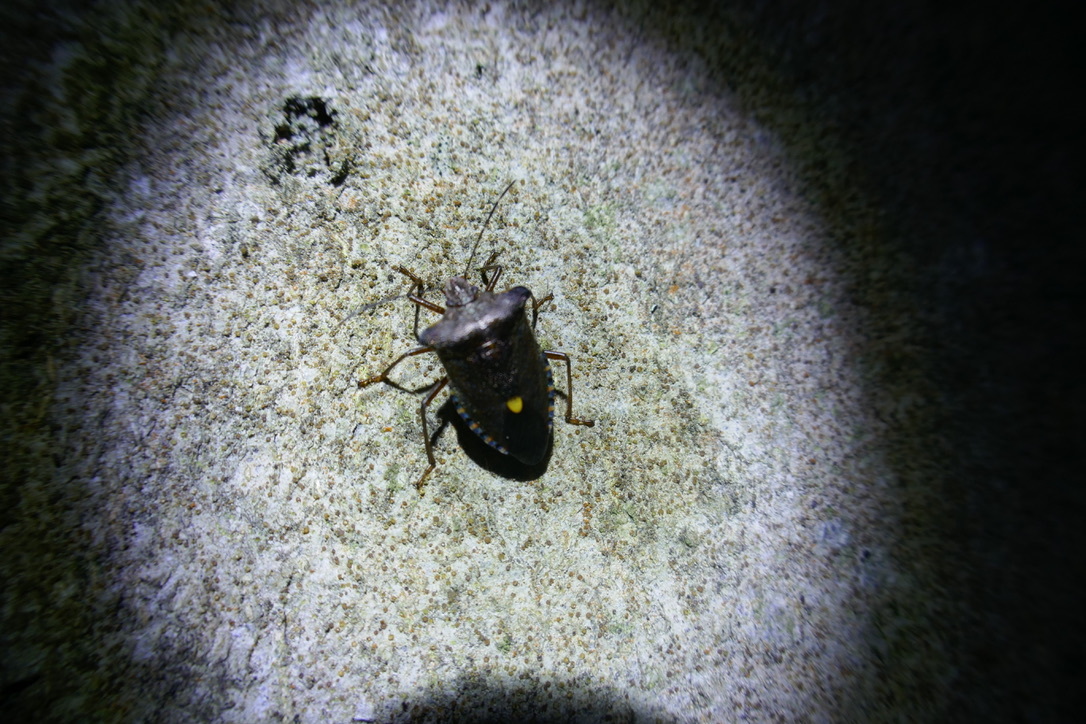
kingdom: Animalia
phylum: Arthropoda
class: Insecta
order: Hemiptera
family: Pentatomidae
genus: Pentatoma
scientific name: Pentatoma rufipes
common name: Forest bug
